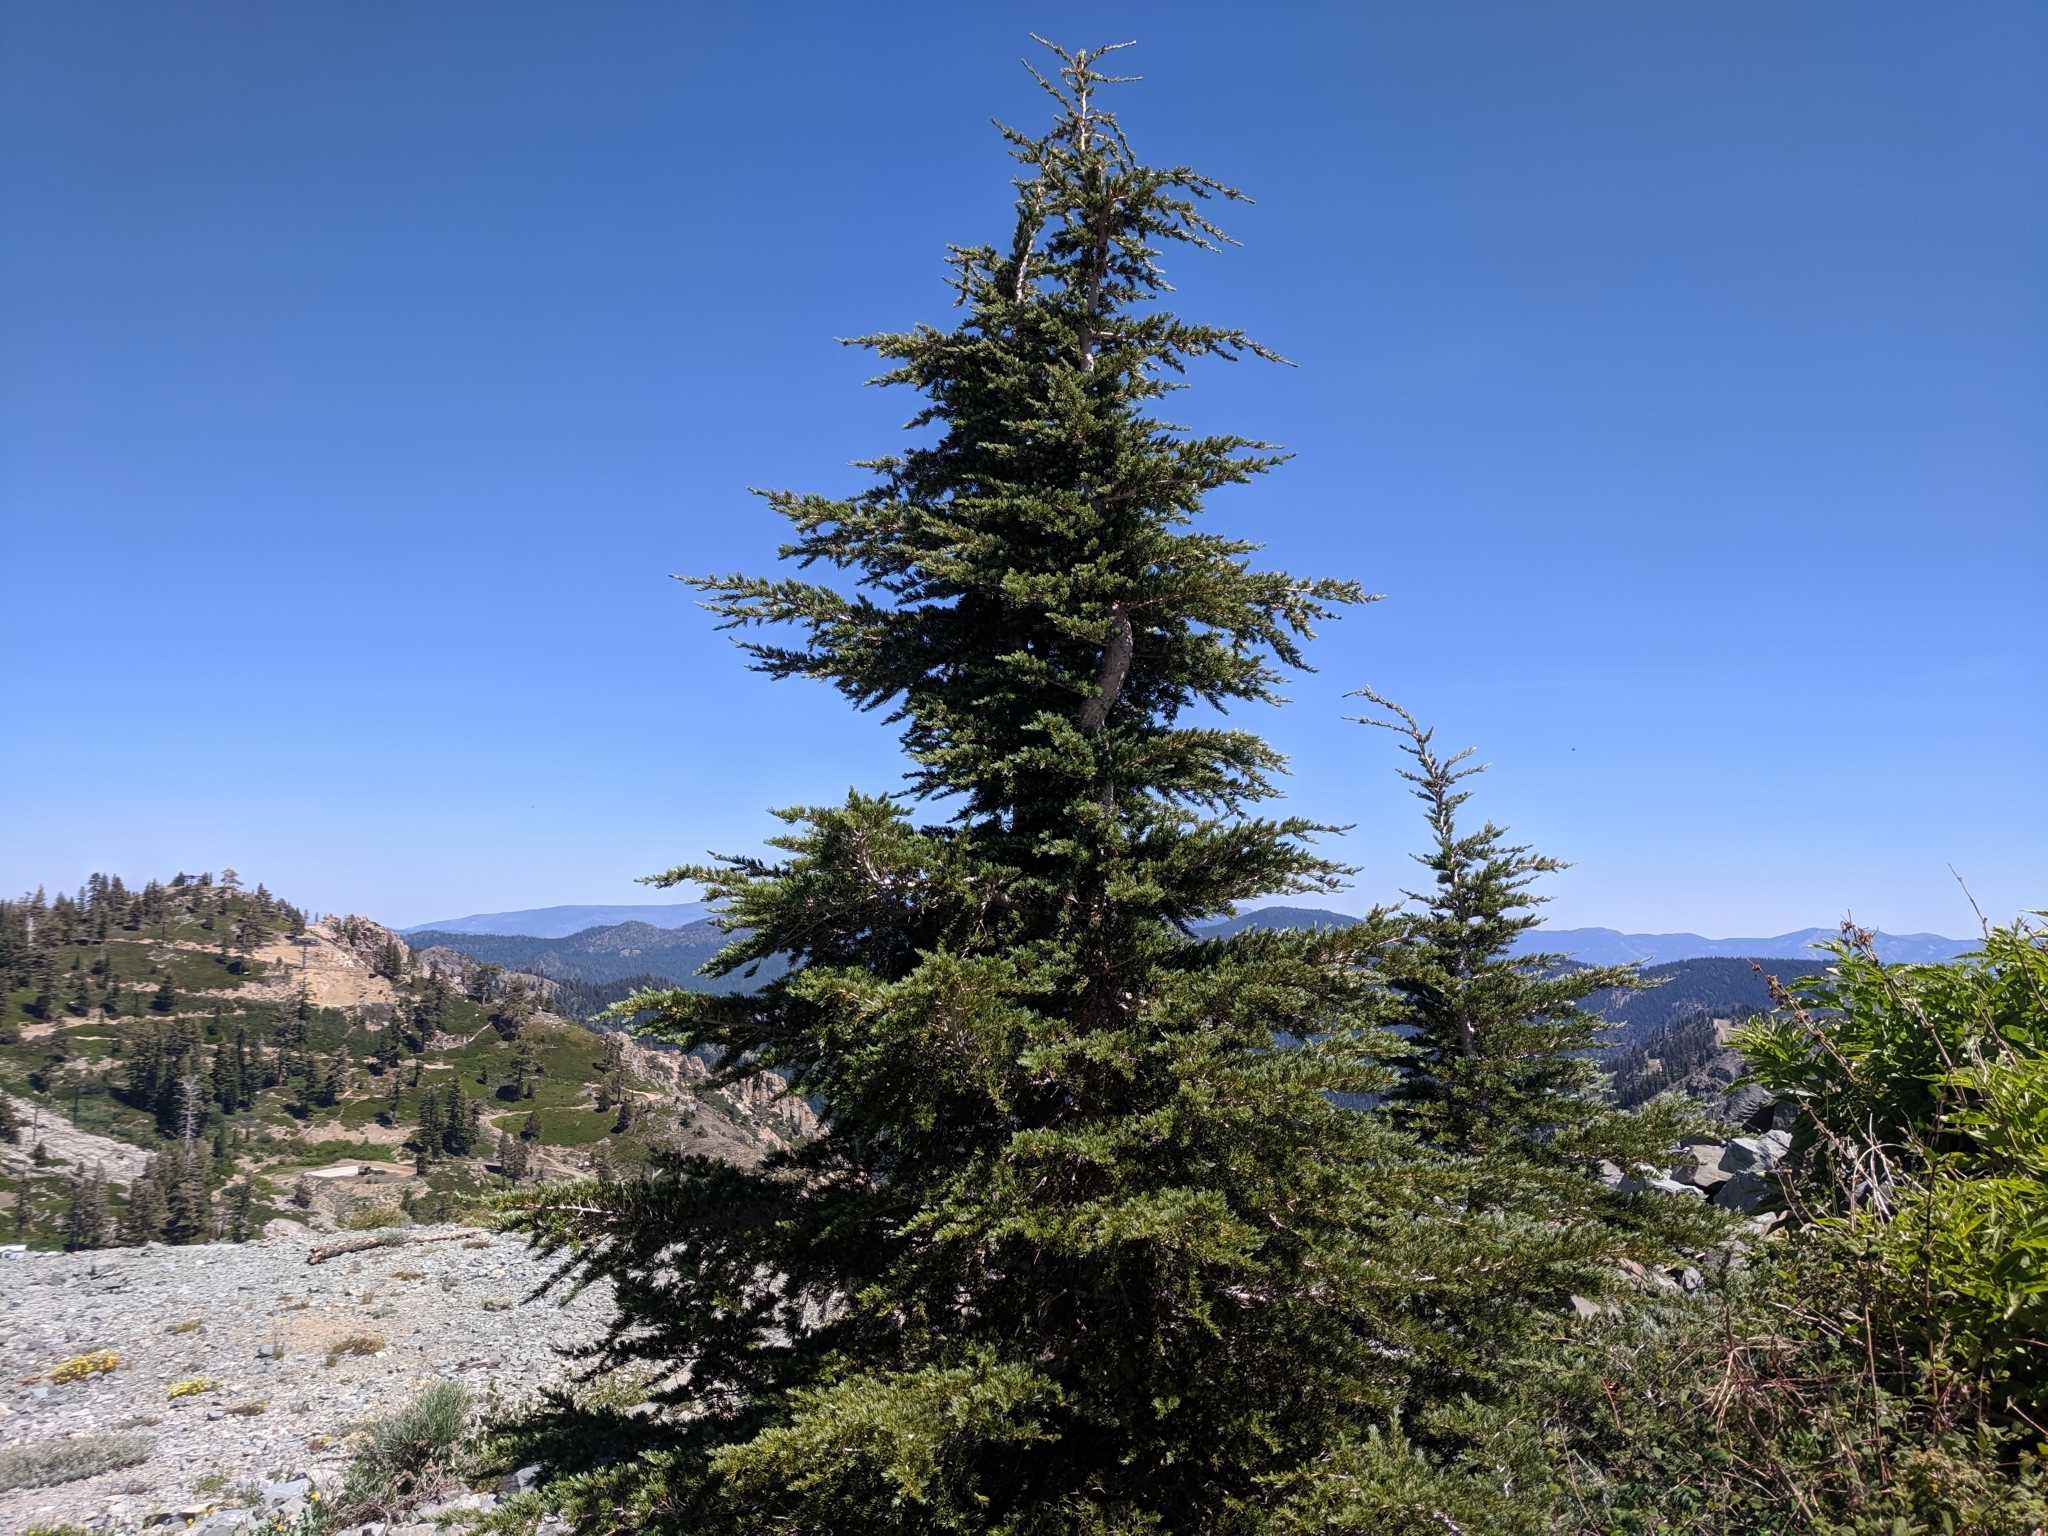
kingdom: Plantae
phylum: Tracheophyta
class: Pinopsida
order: Pinales
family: Pinaceae
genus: Tsuga
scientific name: Tsuga mertensiana
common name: Mountain hemlock
